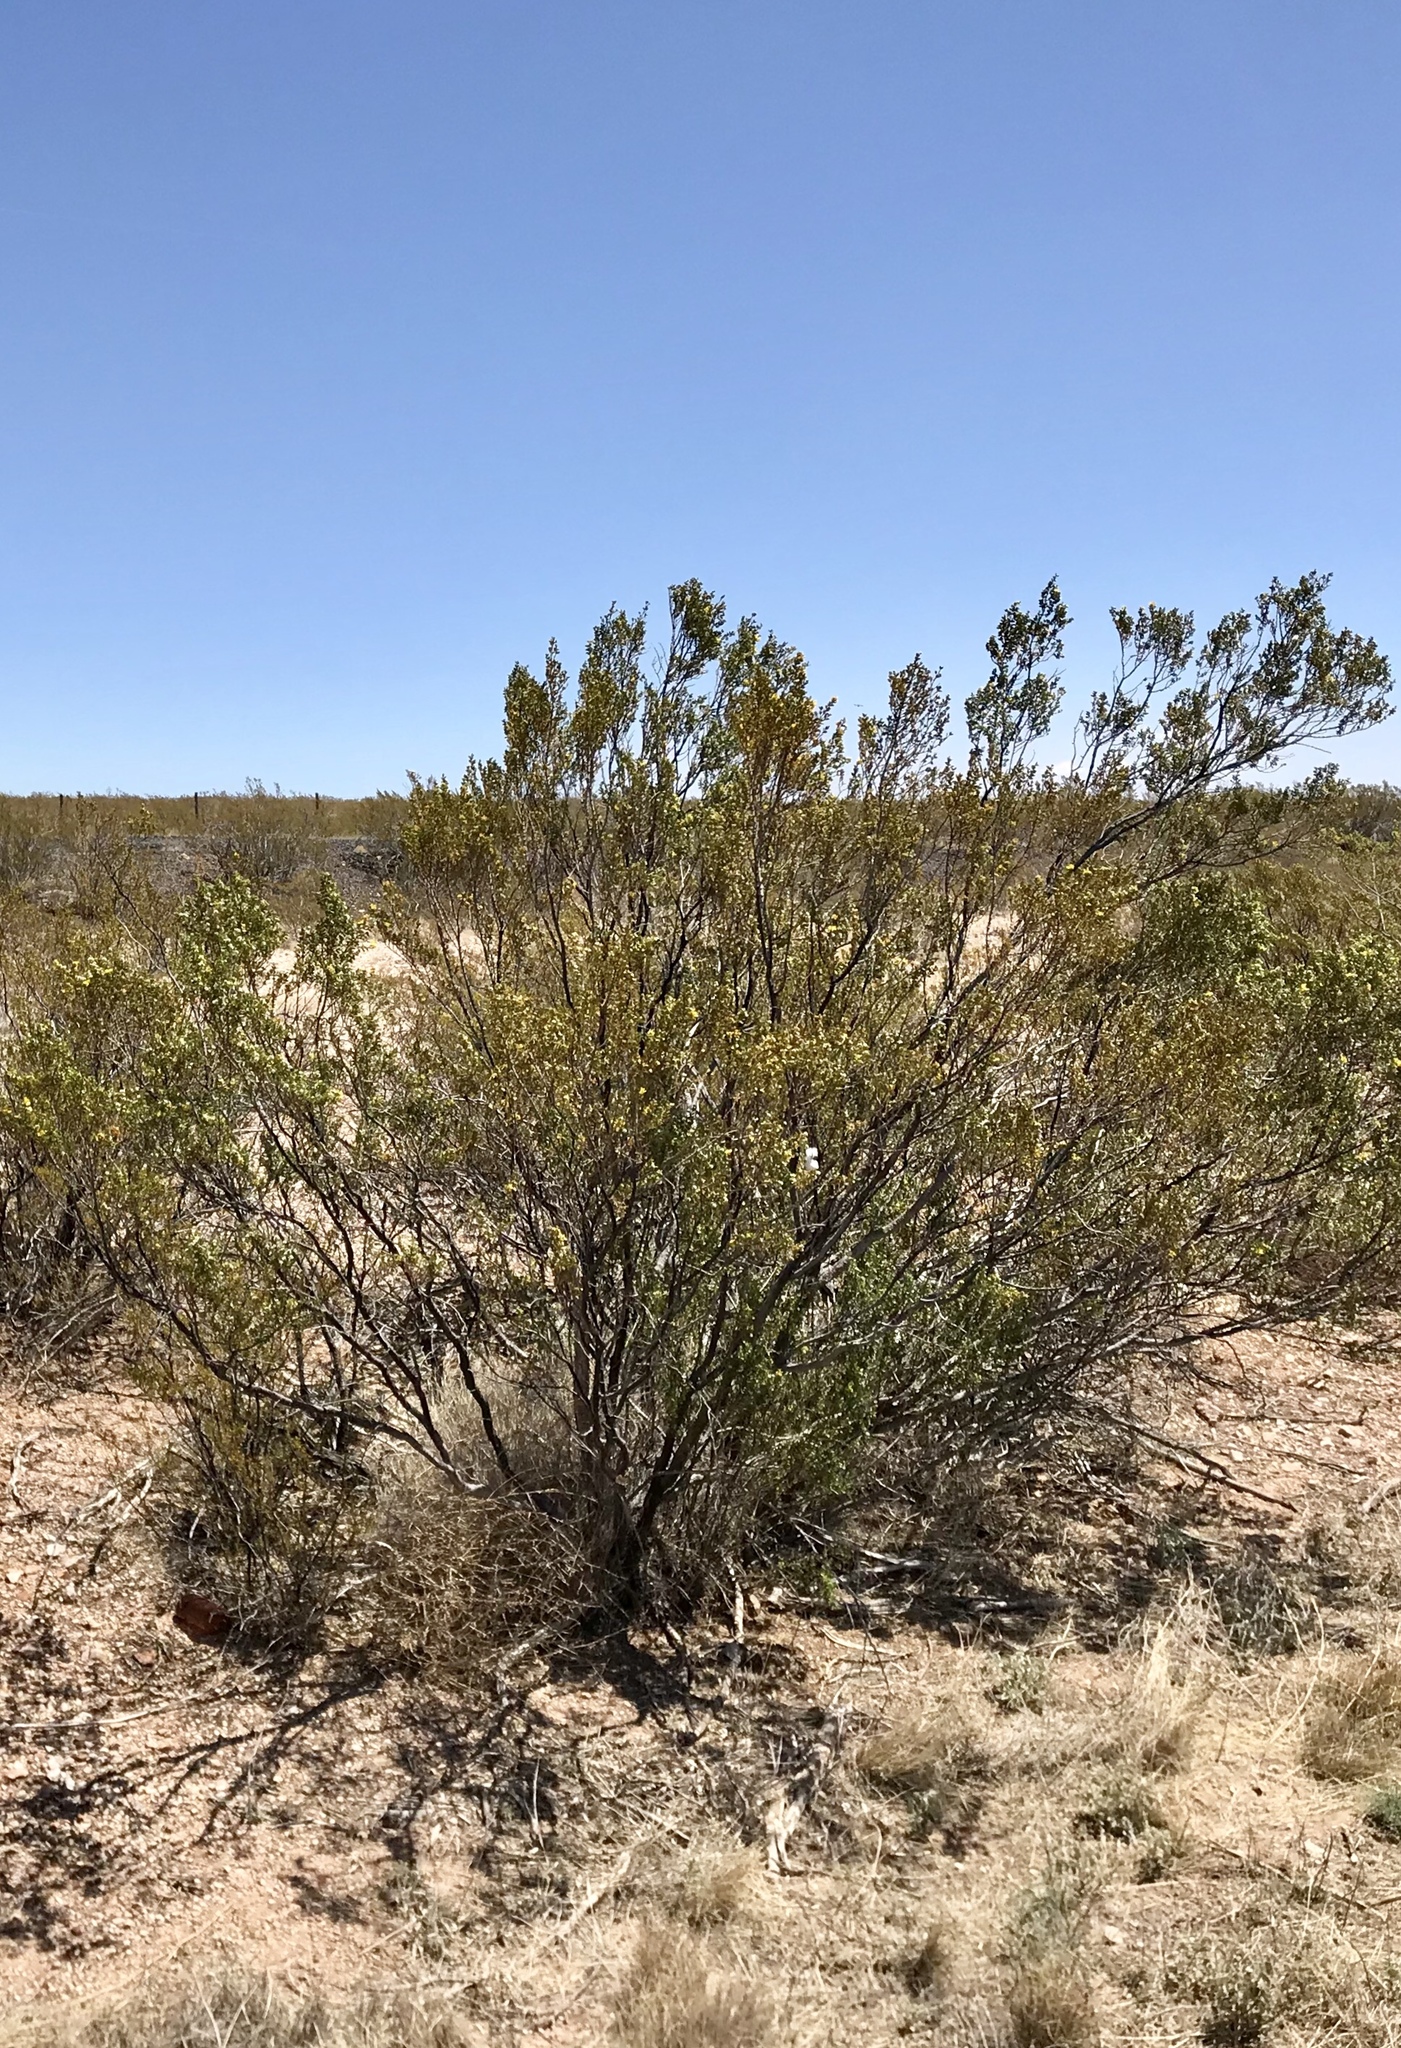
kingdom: Plantae
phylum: Tracheophyta
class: Magnoliopsida
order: Zygophyllales
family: Zygophyllaceae
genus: Larrea
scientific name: Larrea tridentata
